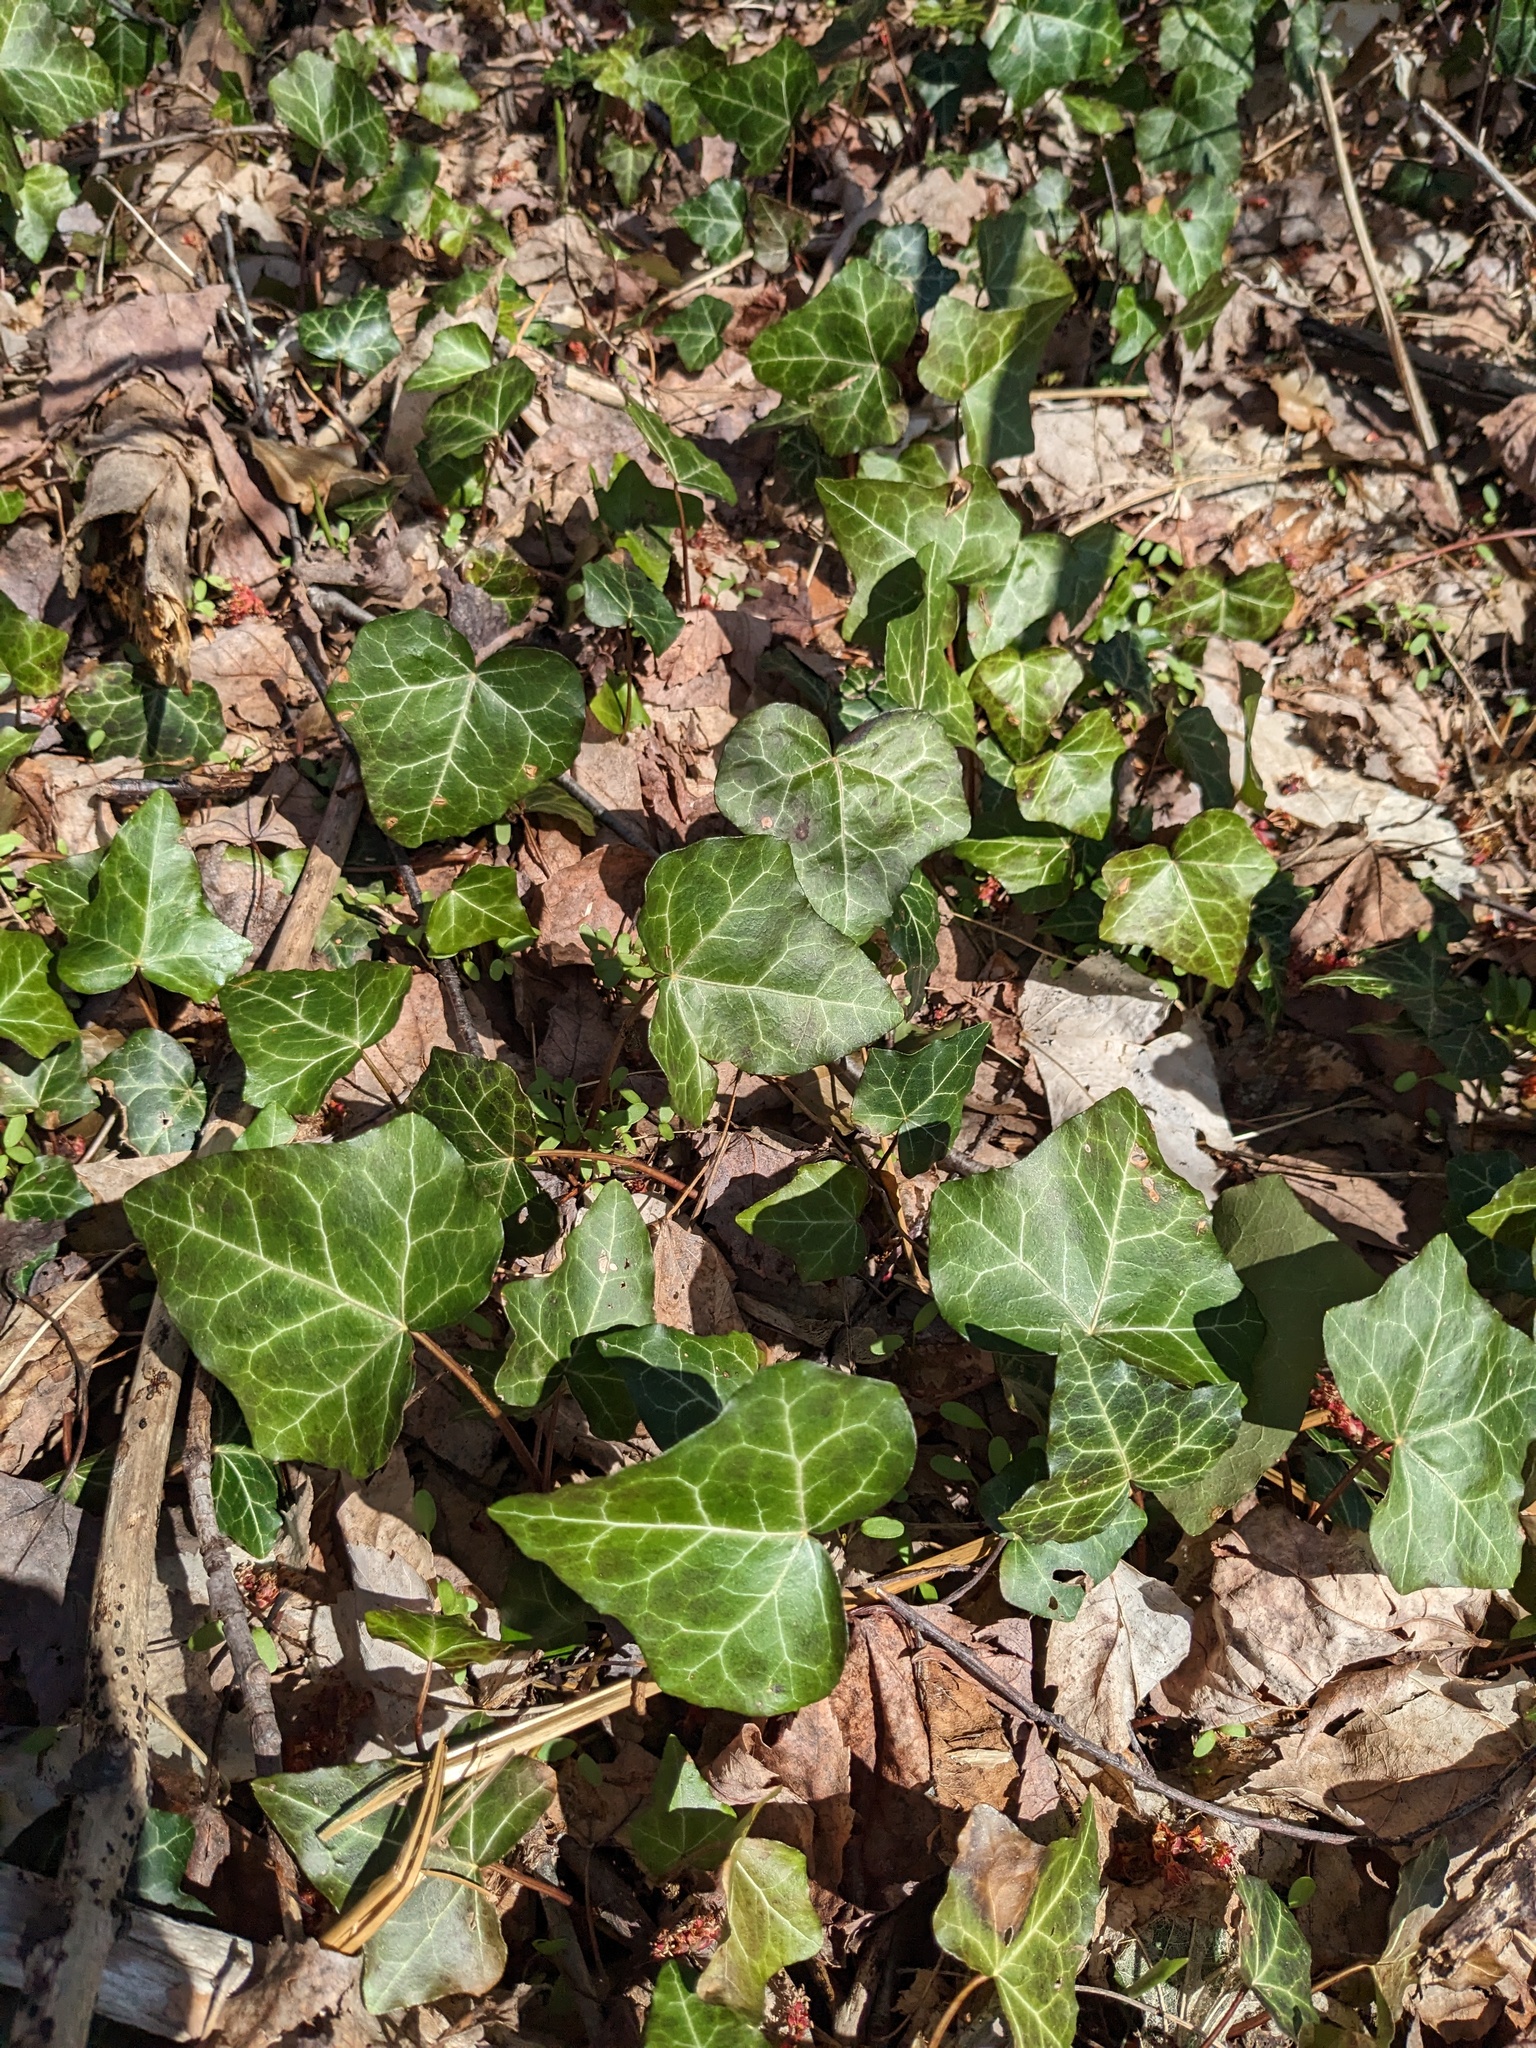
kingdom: Plantae
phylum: Tracheophyta
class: Magnoliopsida
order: Apiales
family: Araliaceae
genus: Hedera
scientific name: Hedera helix
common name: Ivy
